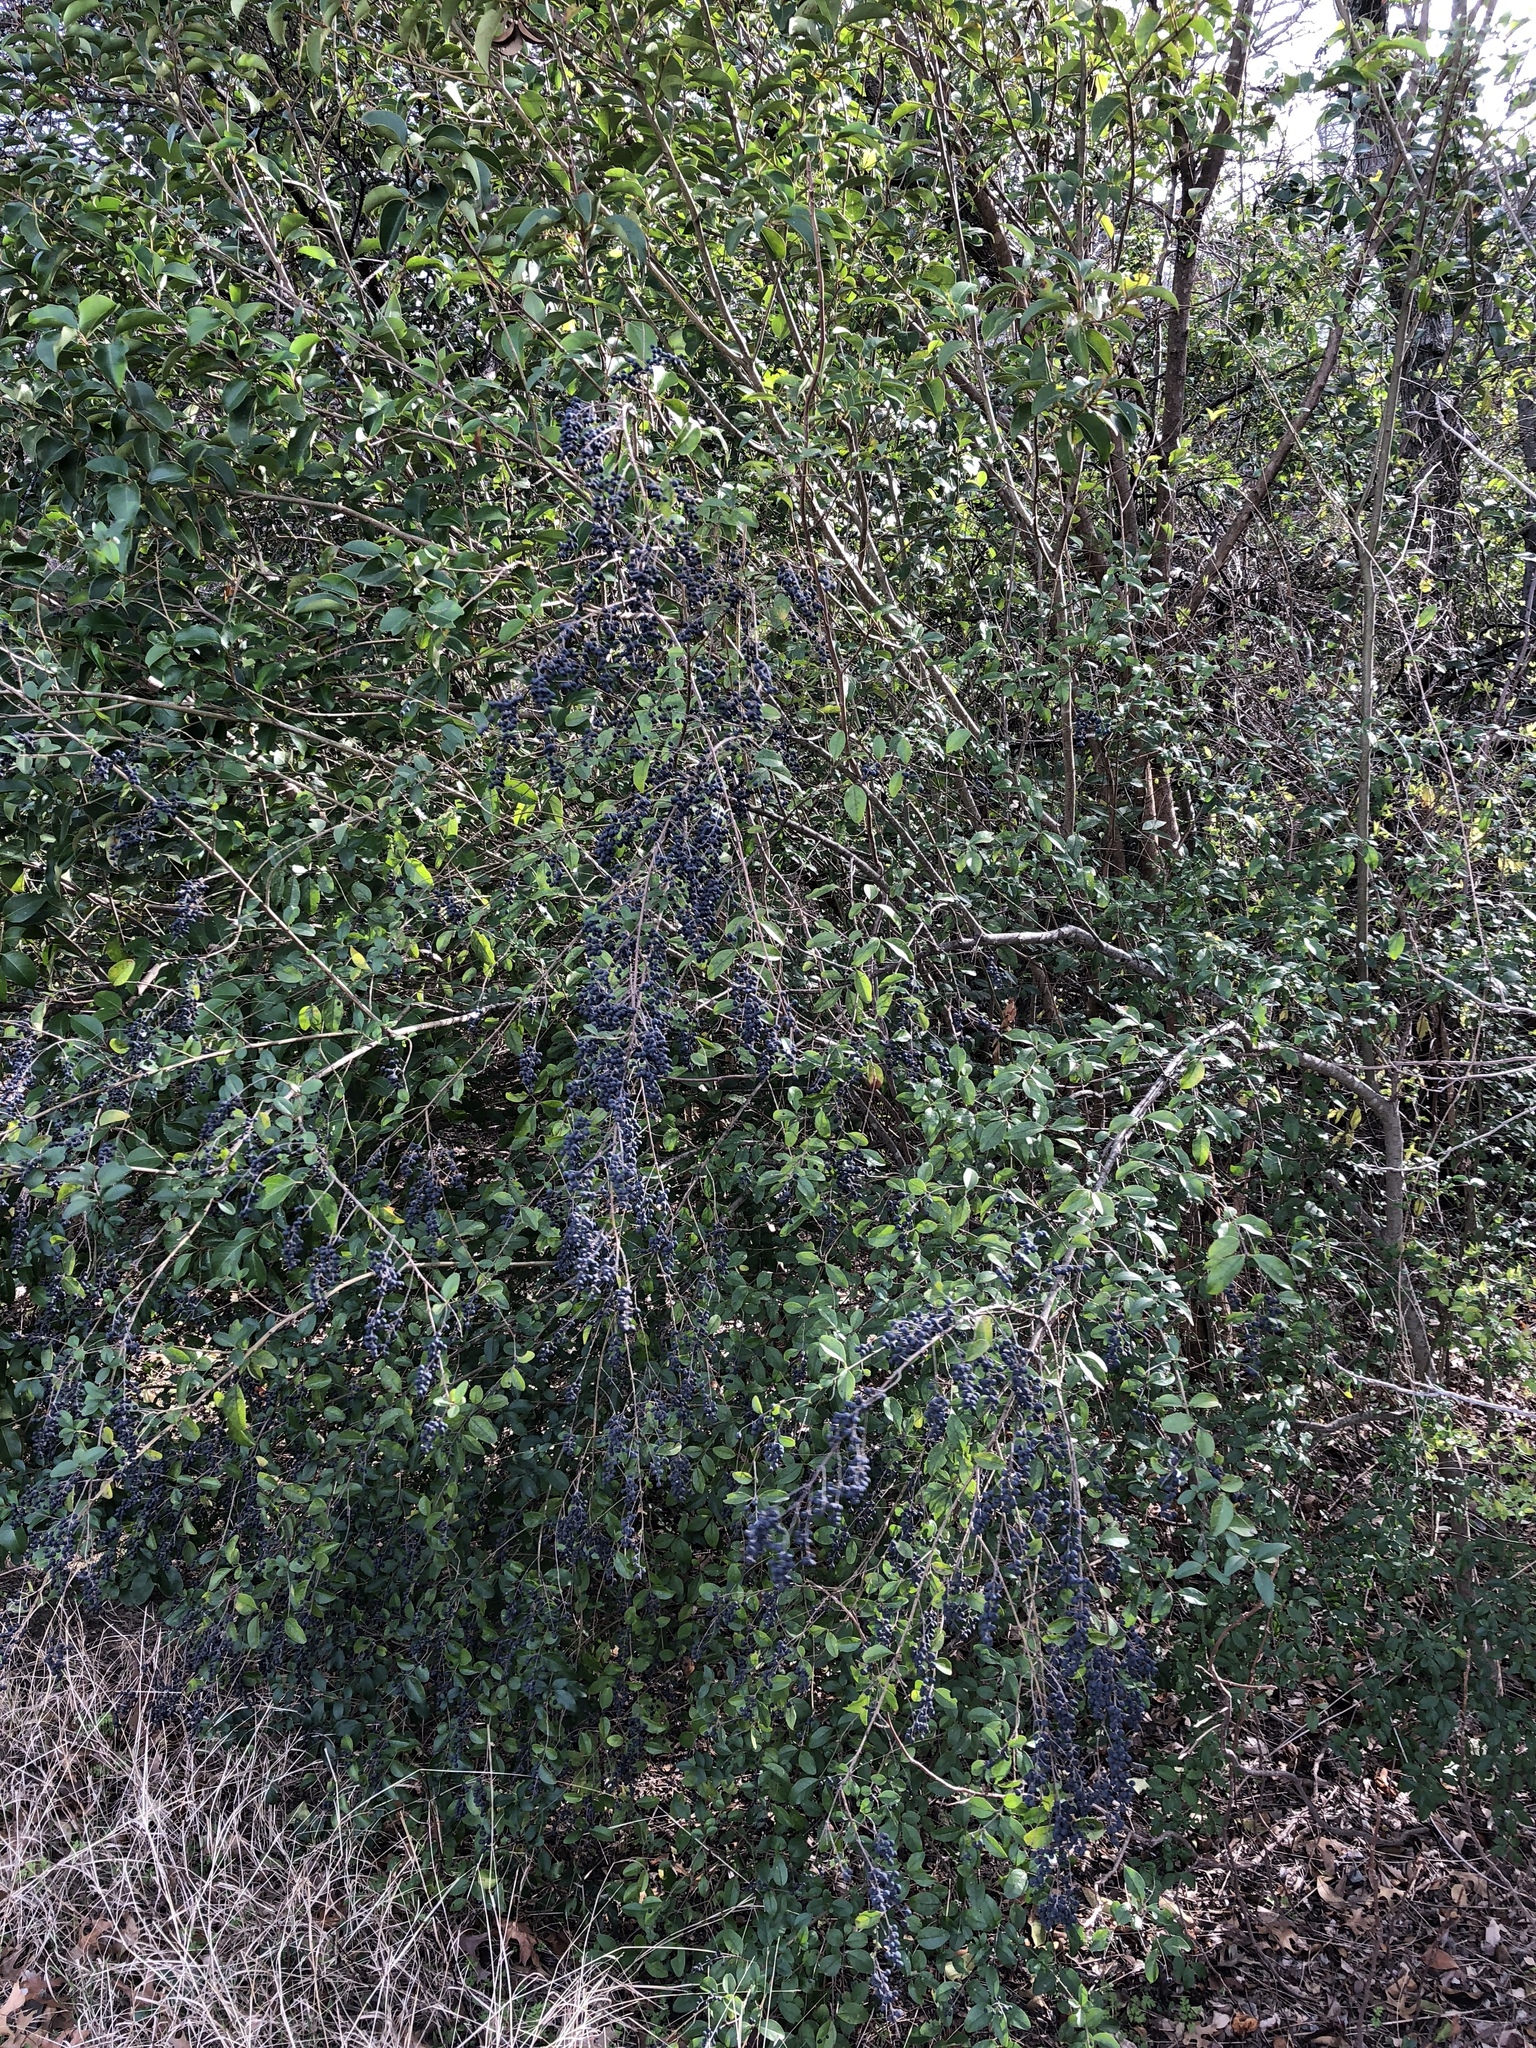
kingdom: Plantae
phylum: Tracheophyta
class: Magnoliopsida
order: Lamiales
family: Oleaceae
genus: Ligustrum
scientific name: Ligustrum sinense
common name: Chinese privet
